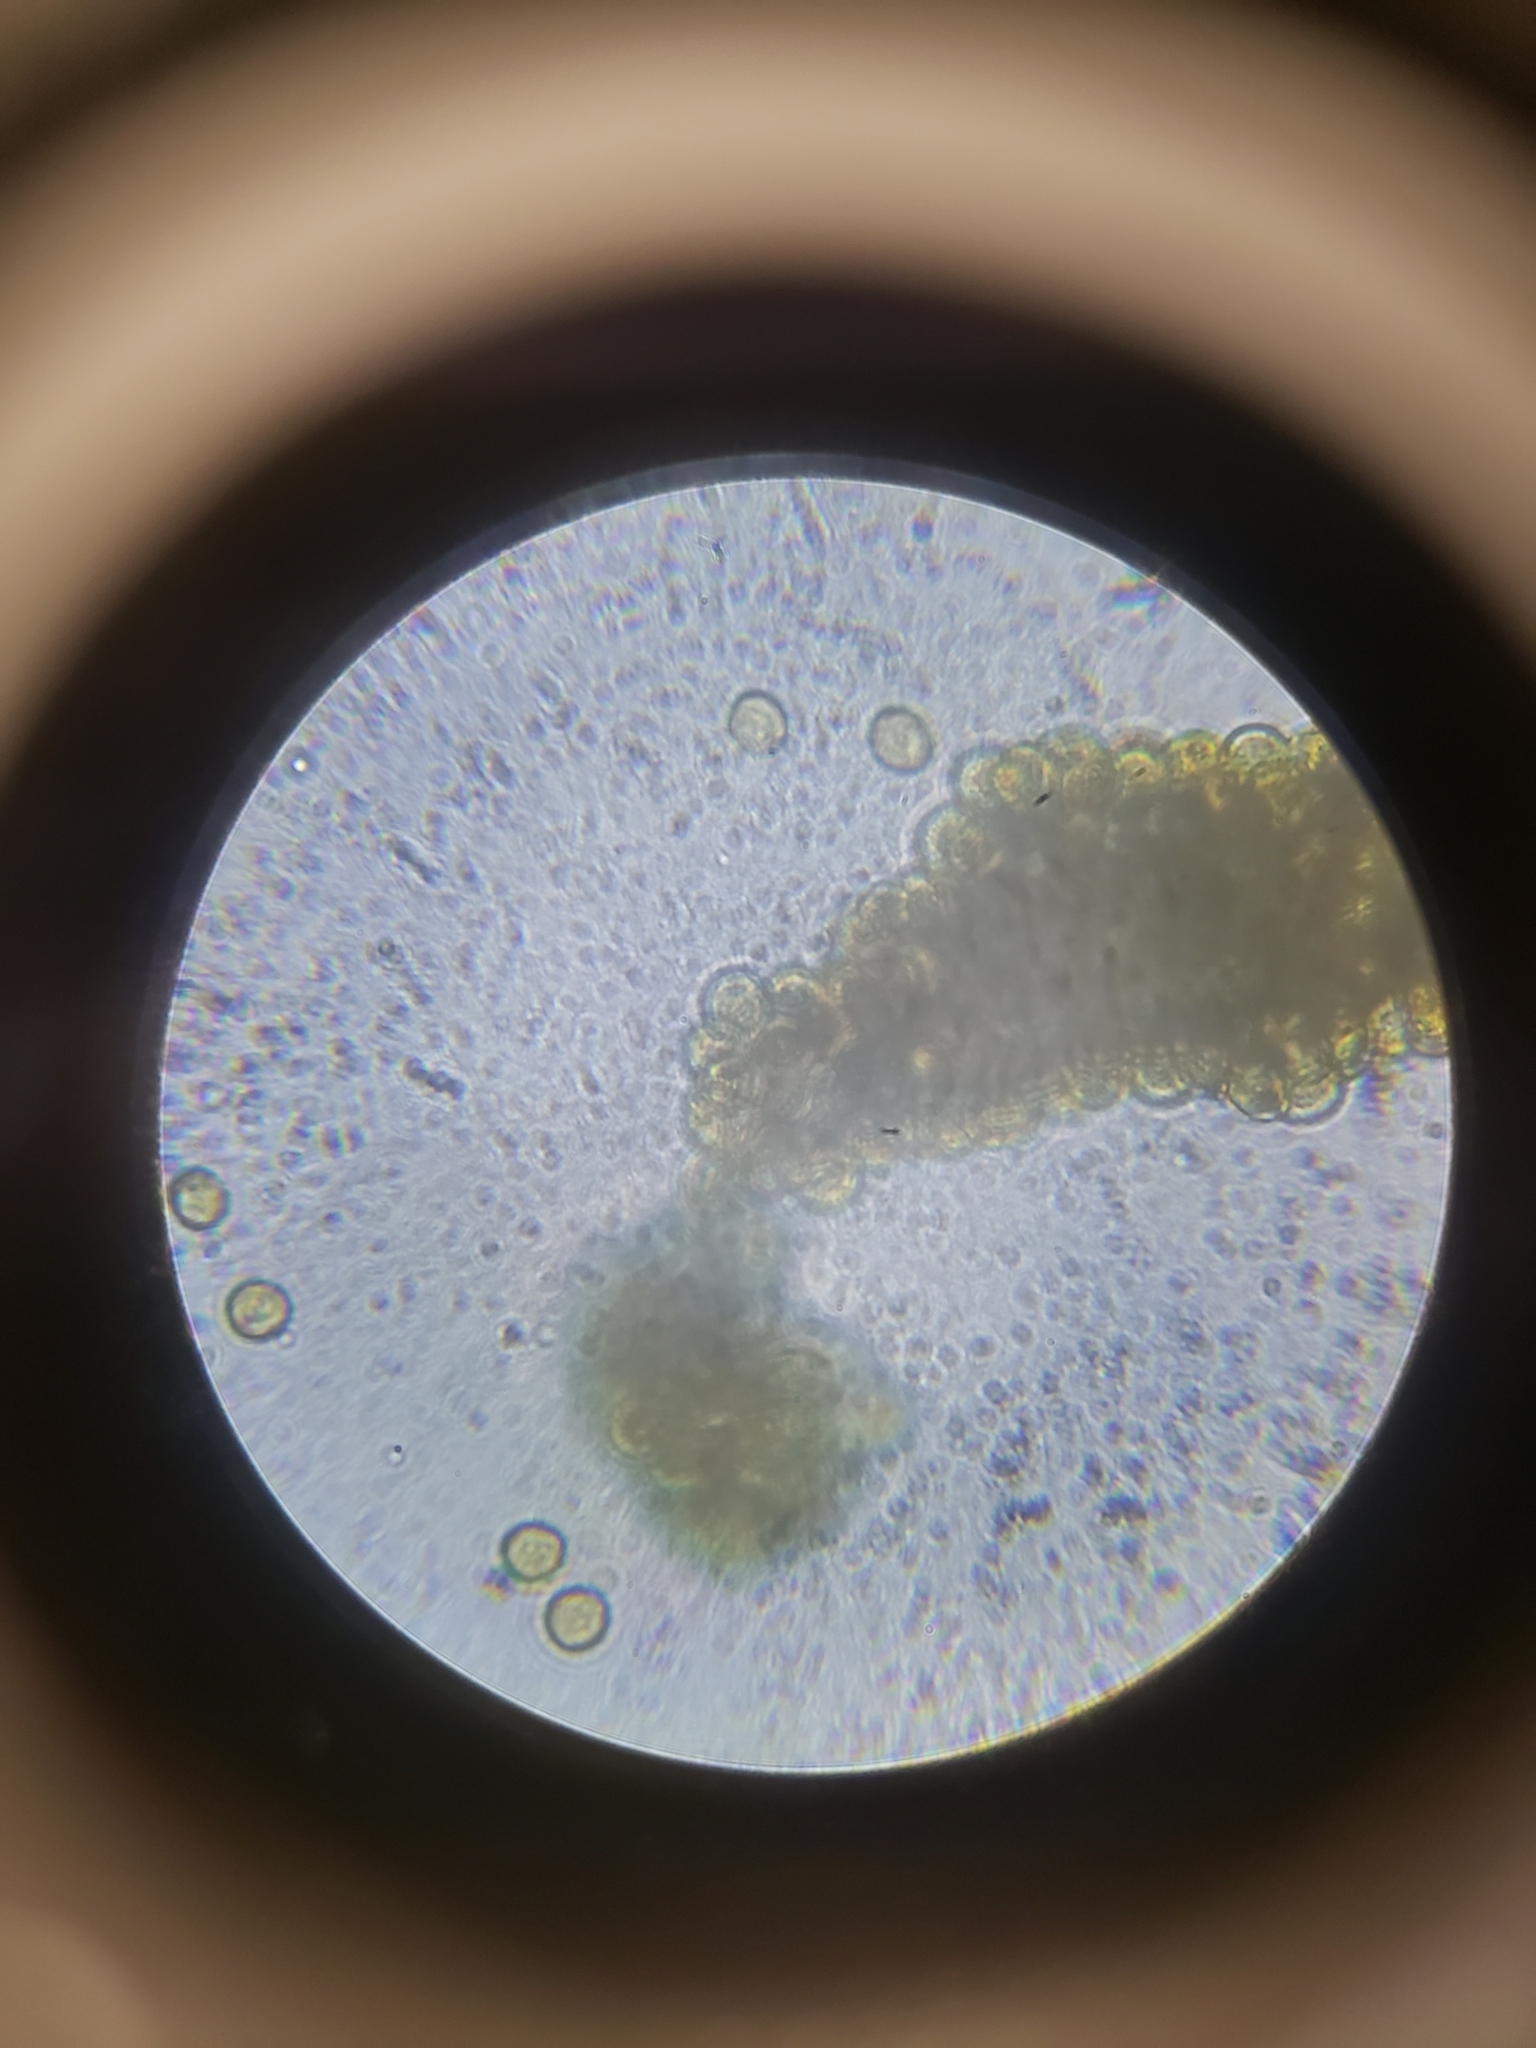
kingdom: Protozoa
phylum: Mycetozoa
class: Myxomycetes
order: Trichiales
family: Trichiaceae
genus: Perichaena
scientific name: Perichaena depressa
